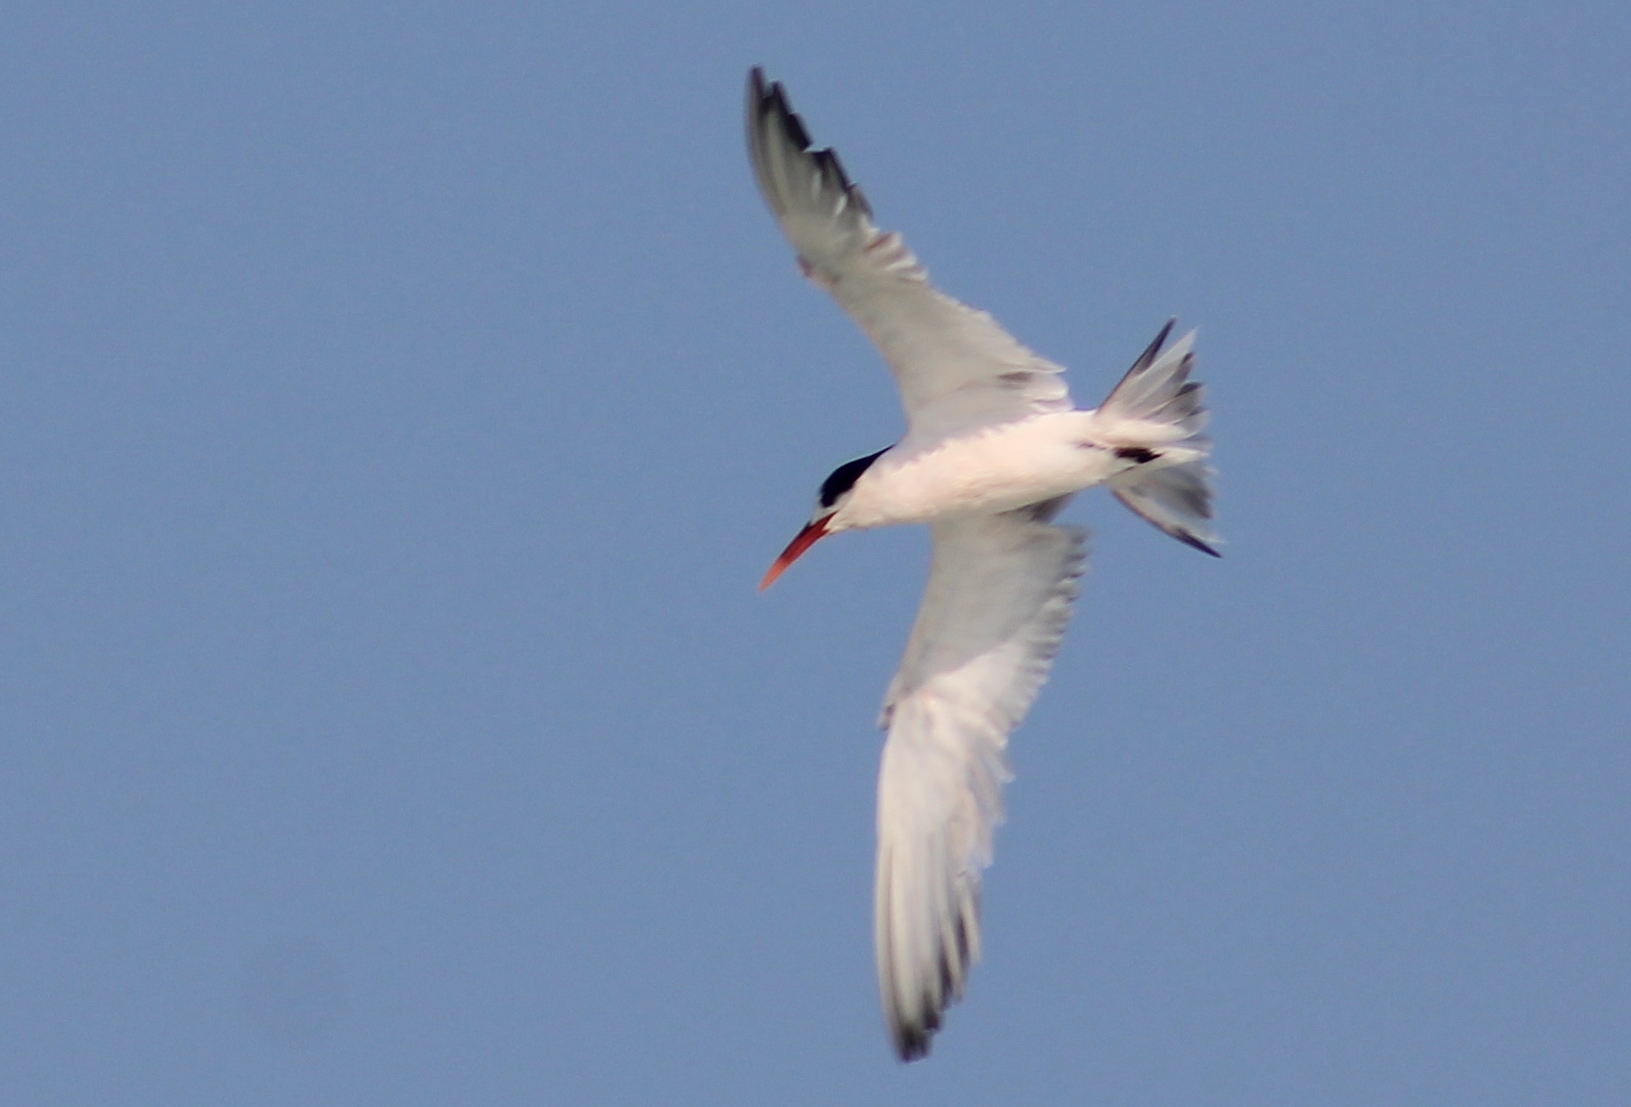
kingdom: Animalia
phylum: Chordata
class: Aves
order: Charadriiformes
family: Laridae
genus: Thalasseus
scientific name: Thalasseus elegans
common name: Elegant tern
